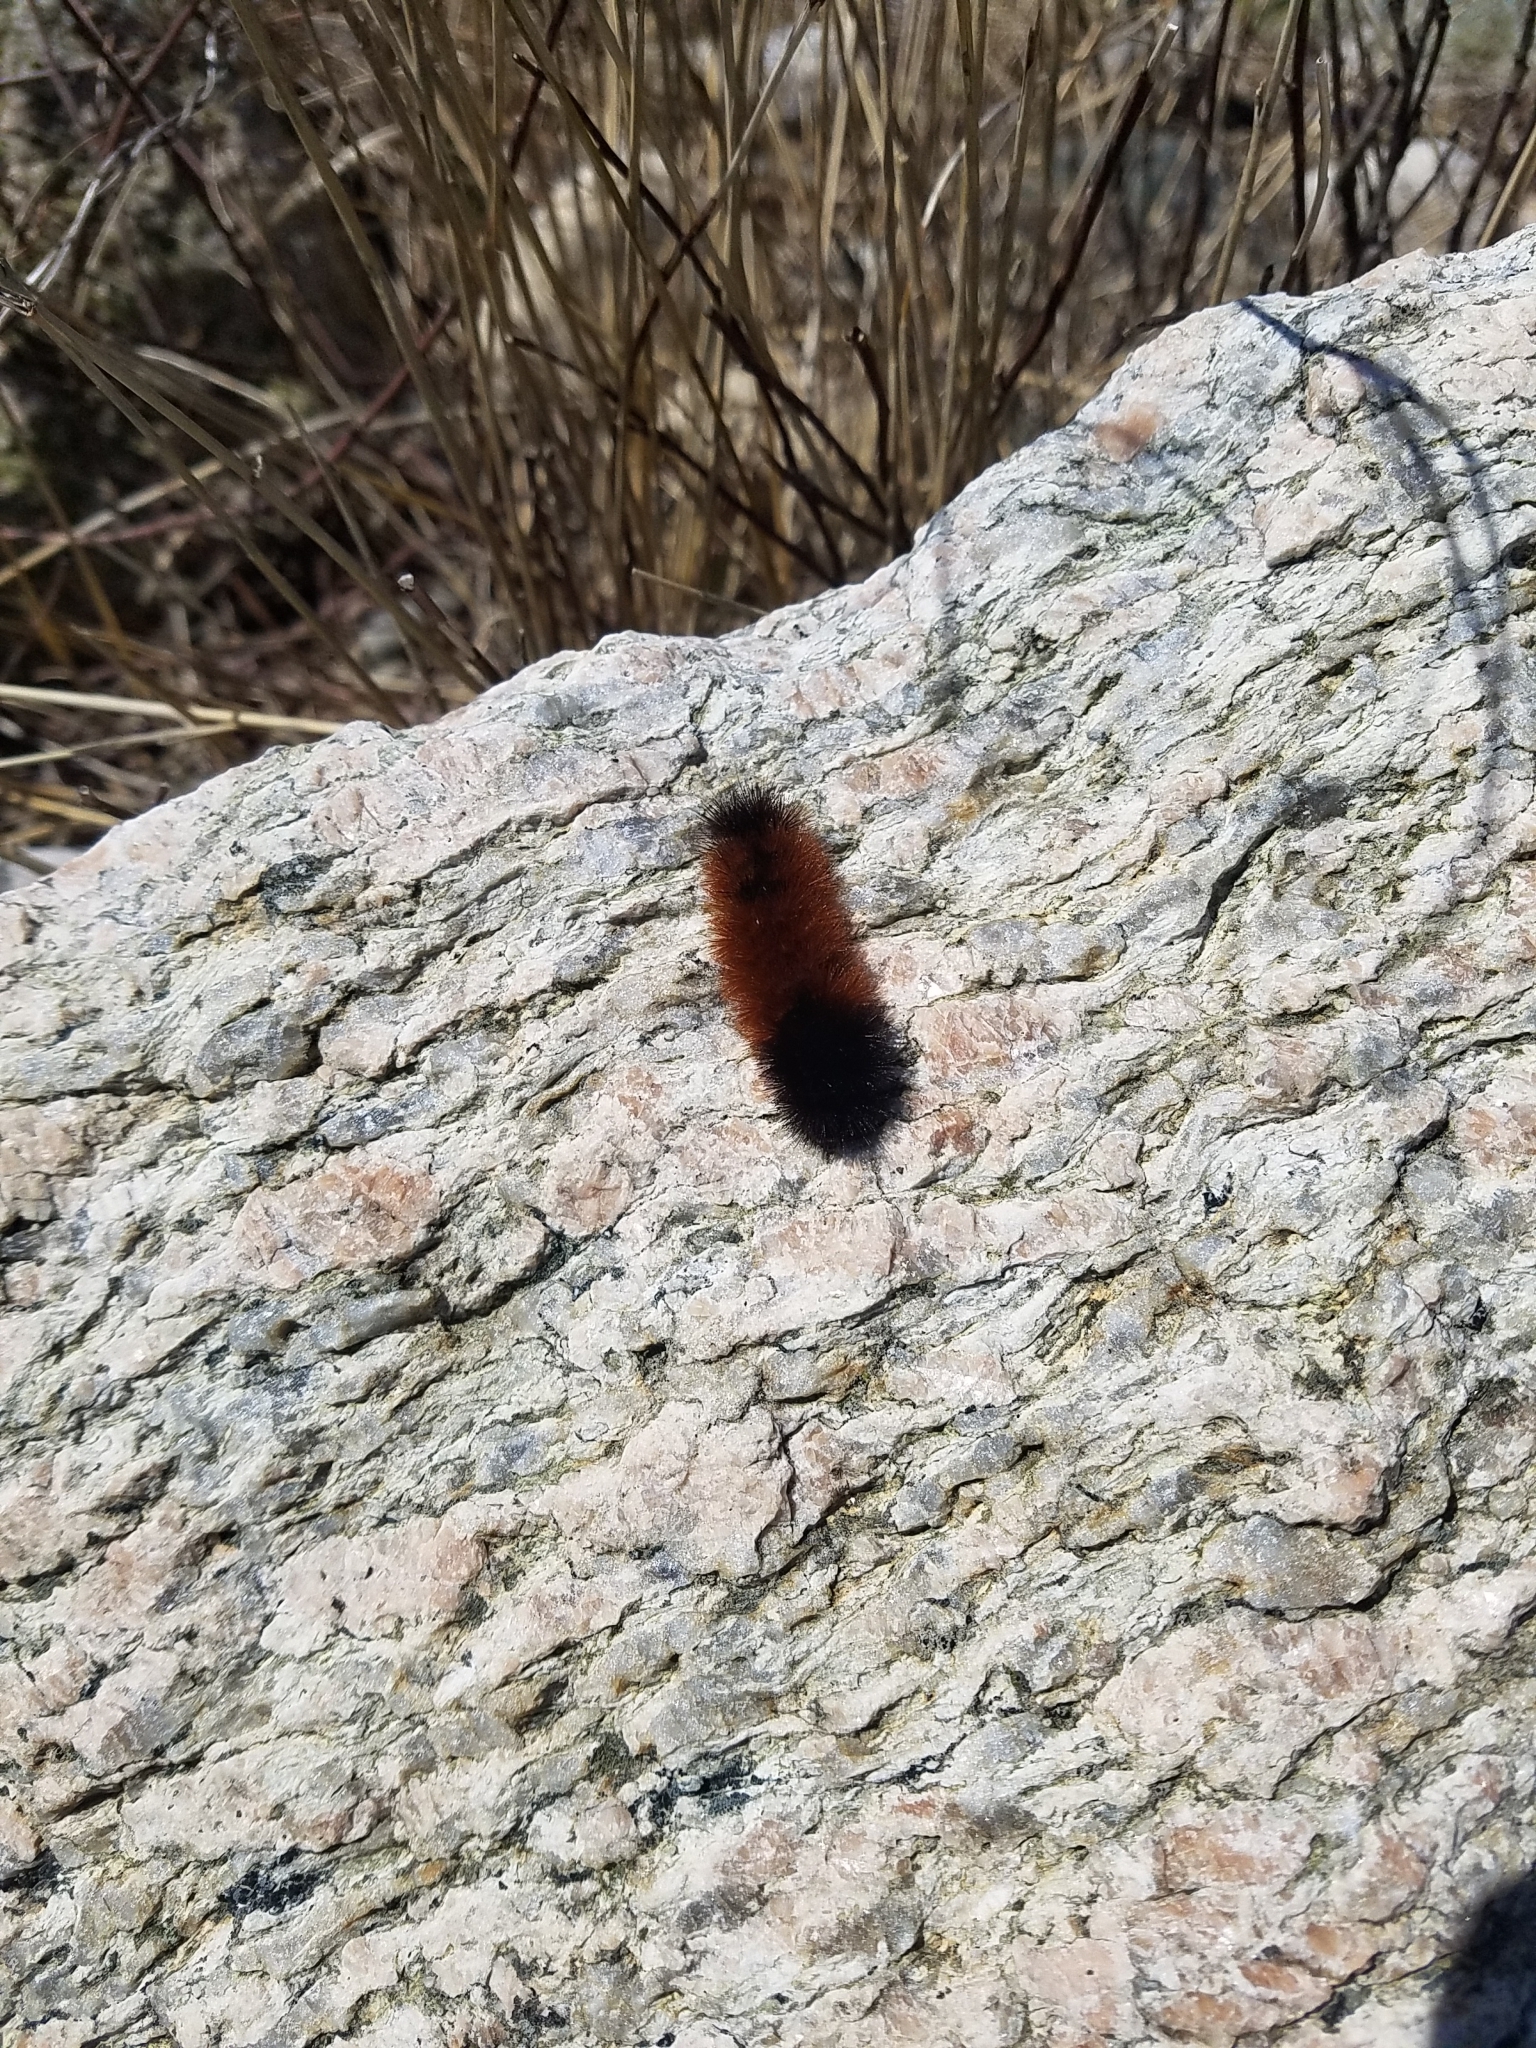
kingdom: Animalia
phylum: Arthropoda
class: Insecta
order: Lepidoptera
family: Erebidae
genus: Pyrrharctia
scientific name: Pyrrharctia isabella
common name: Isabella tiger moth
